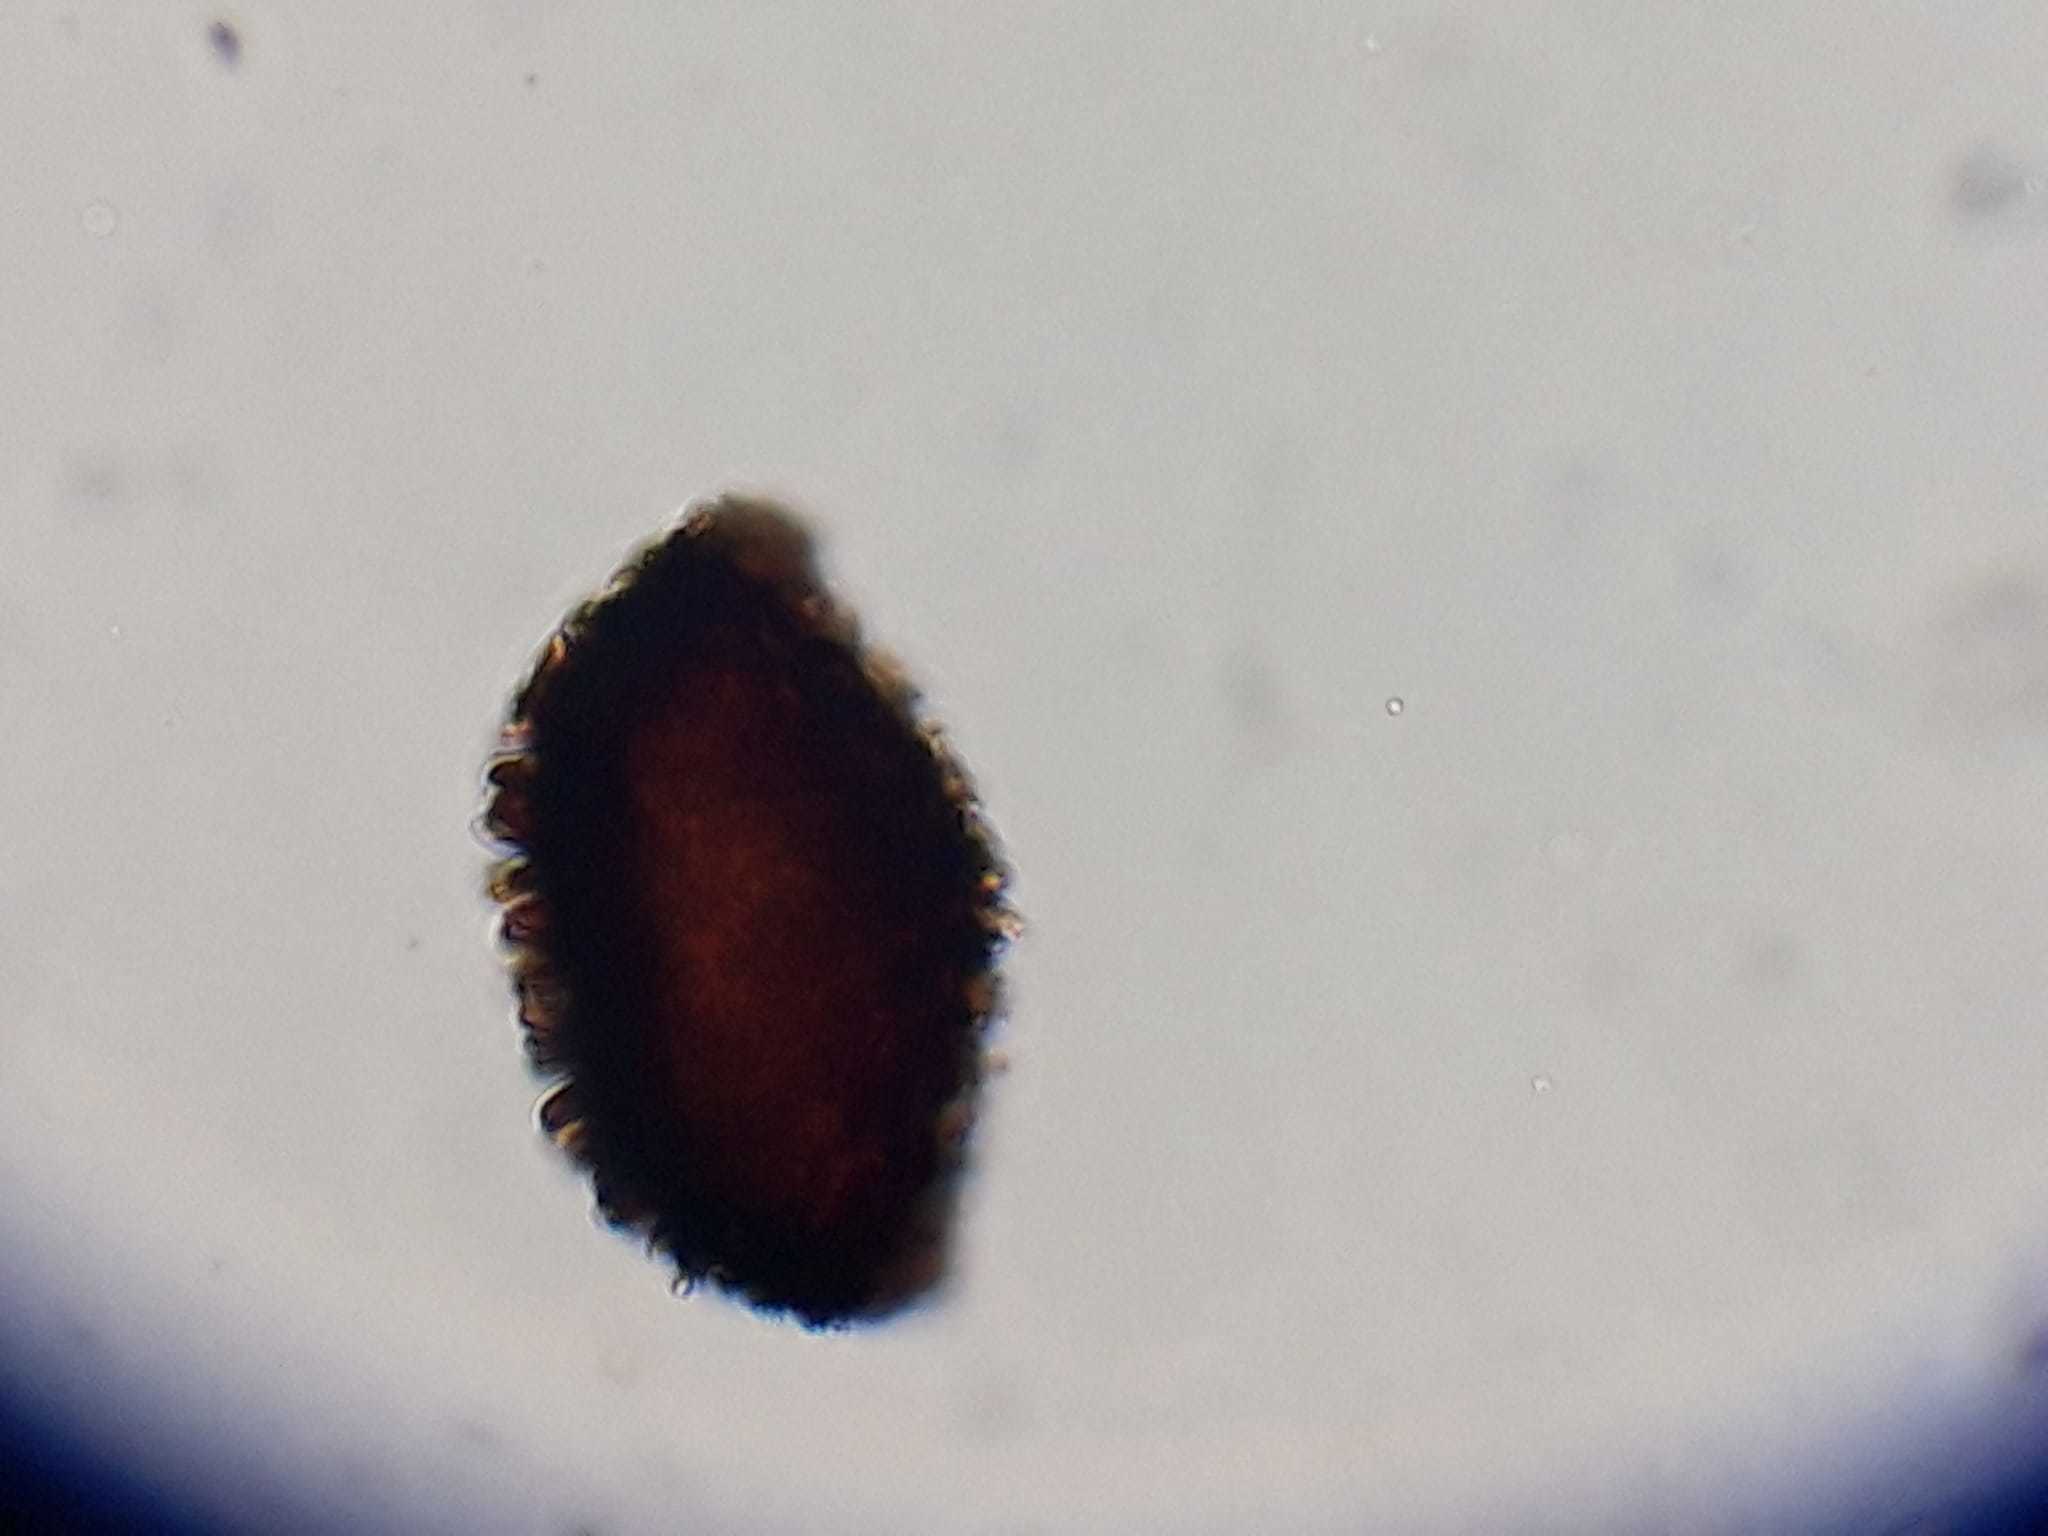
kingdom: Plantae
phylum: Marchantiophyta
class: Marchantiopsida
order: Marchantiales
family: Ricciaceae
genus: Riccia
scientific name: Riccia sorocarpa
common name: Common crystalwort
